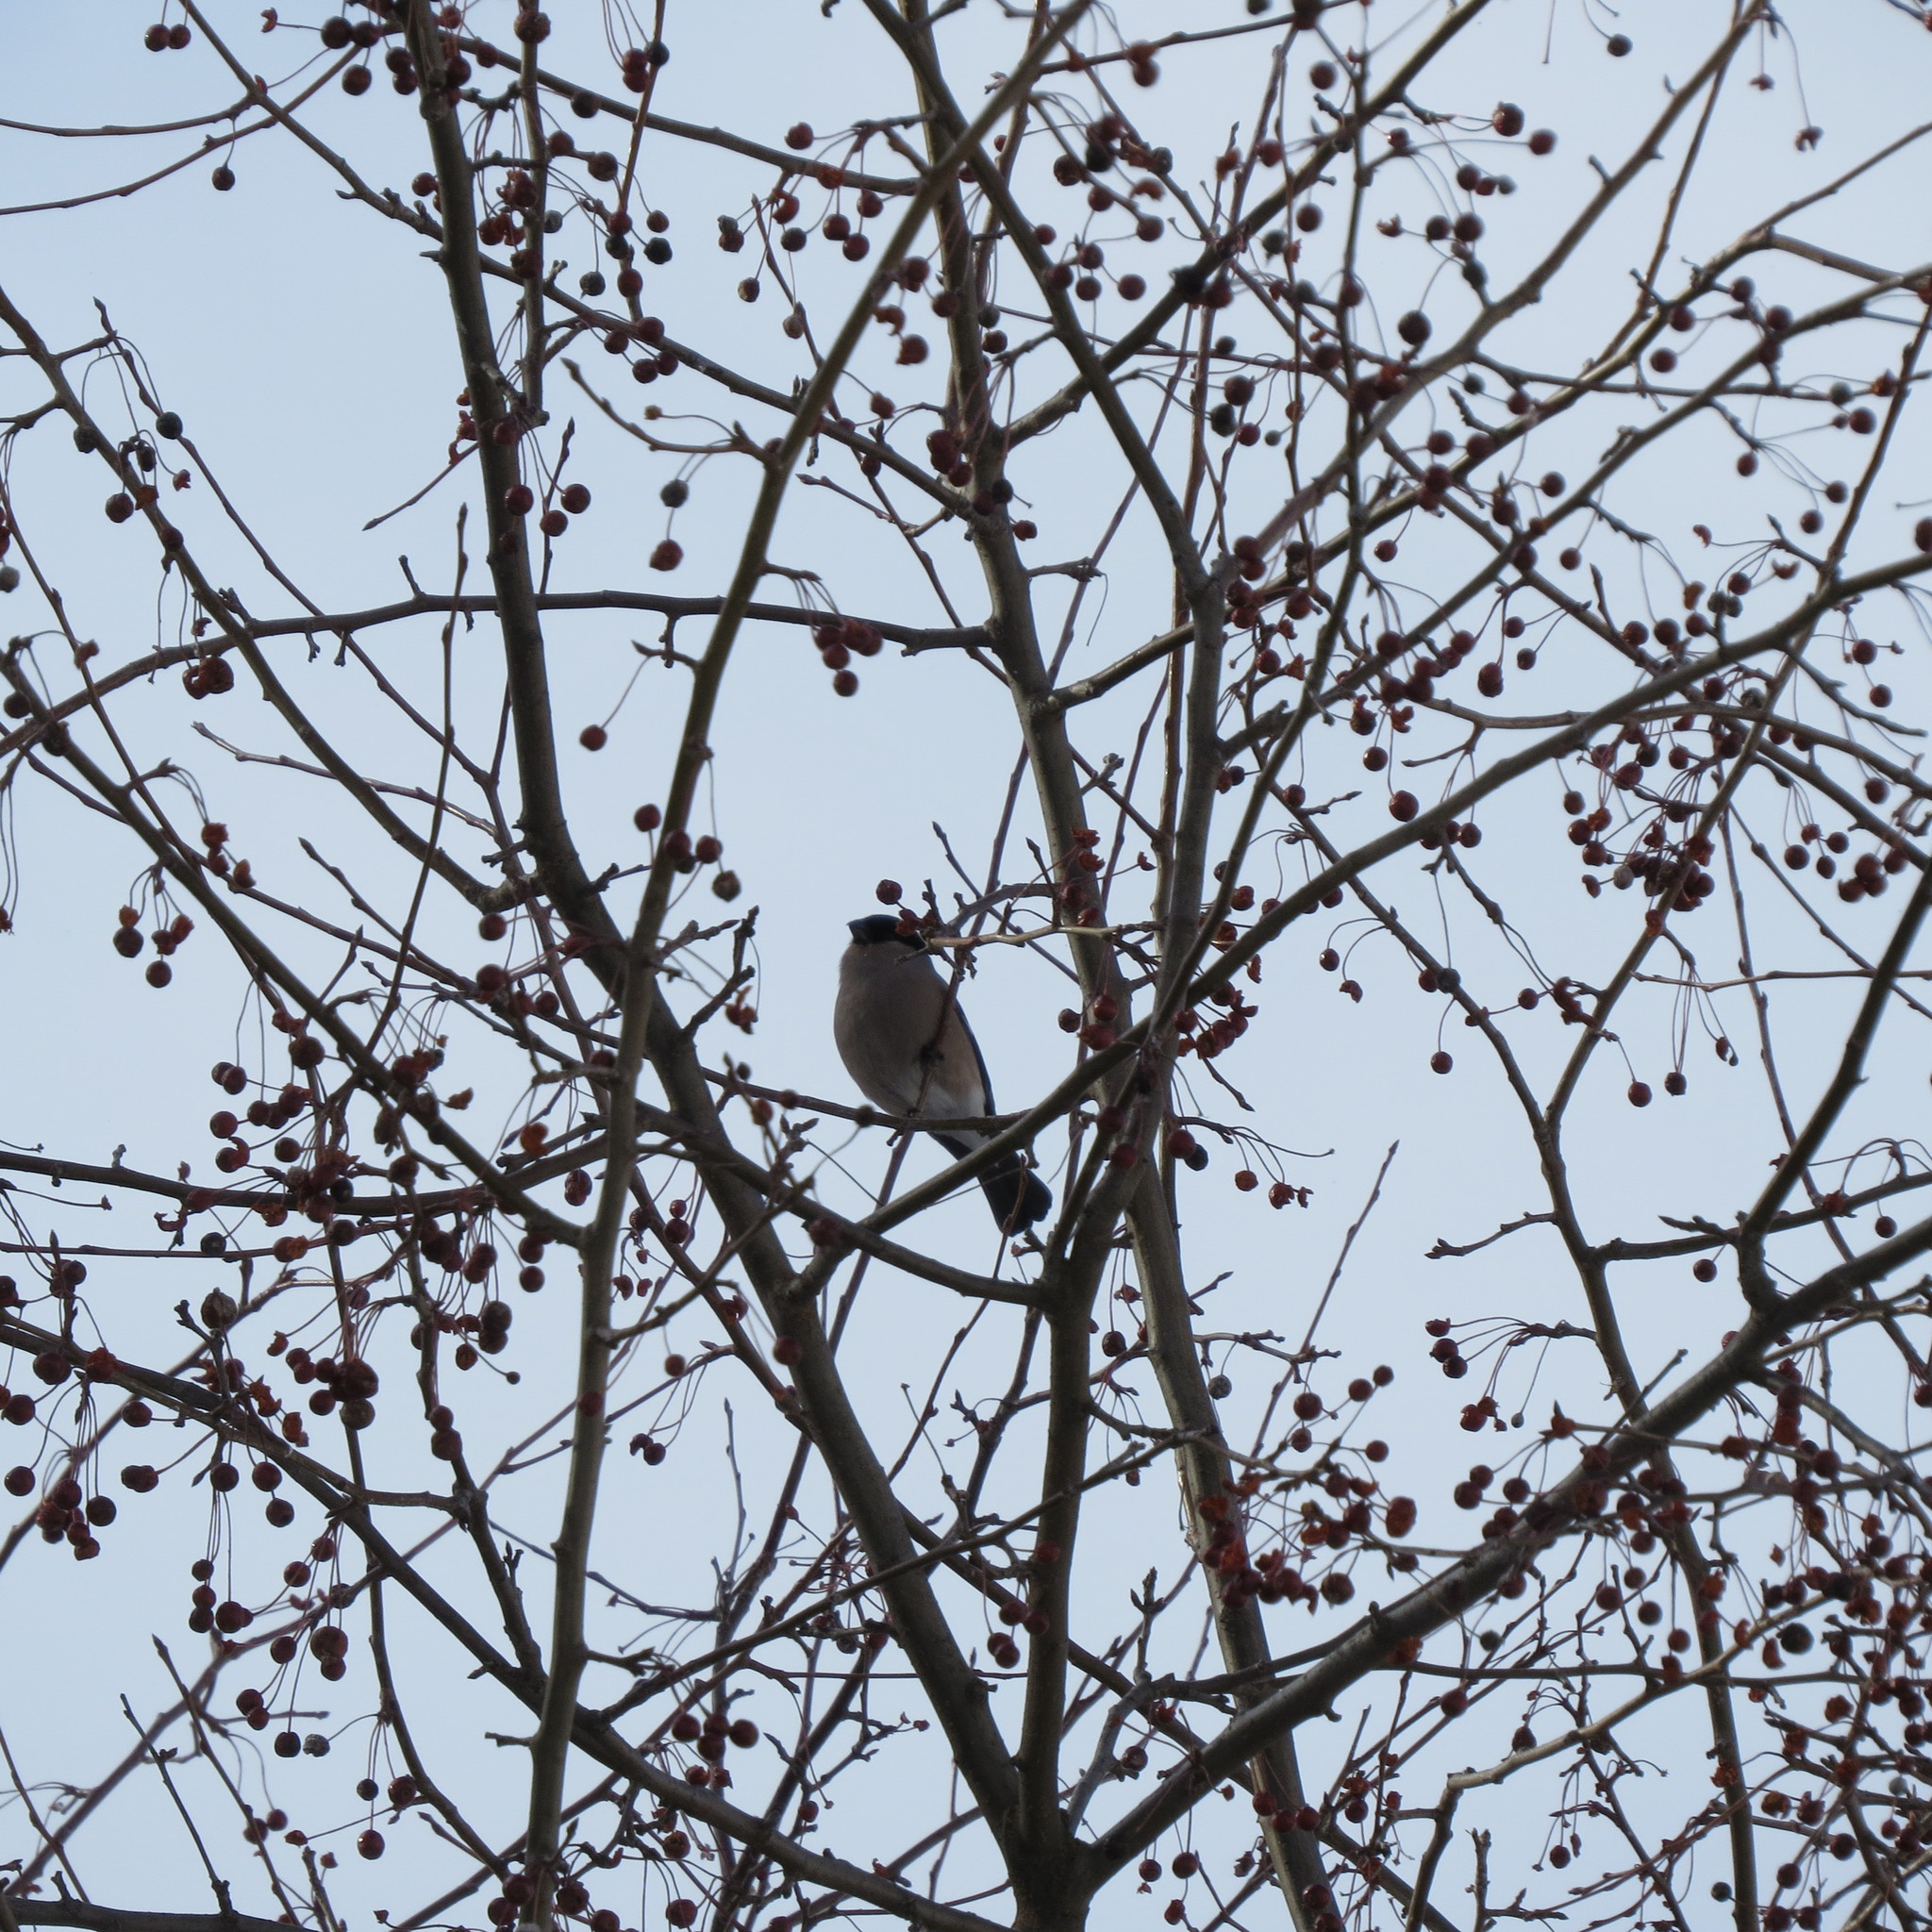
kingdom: Animalia
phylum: Chordata
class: Aves
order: Passeriformes
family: Fringillidae
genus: Pyrrhula
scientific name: Pyrrhula pyrrhula
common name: Eurasian bullfinch
